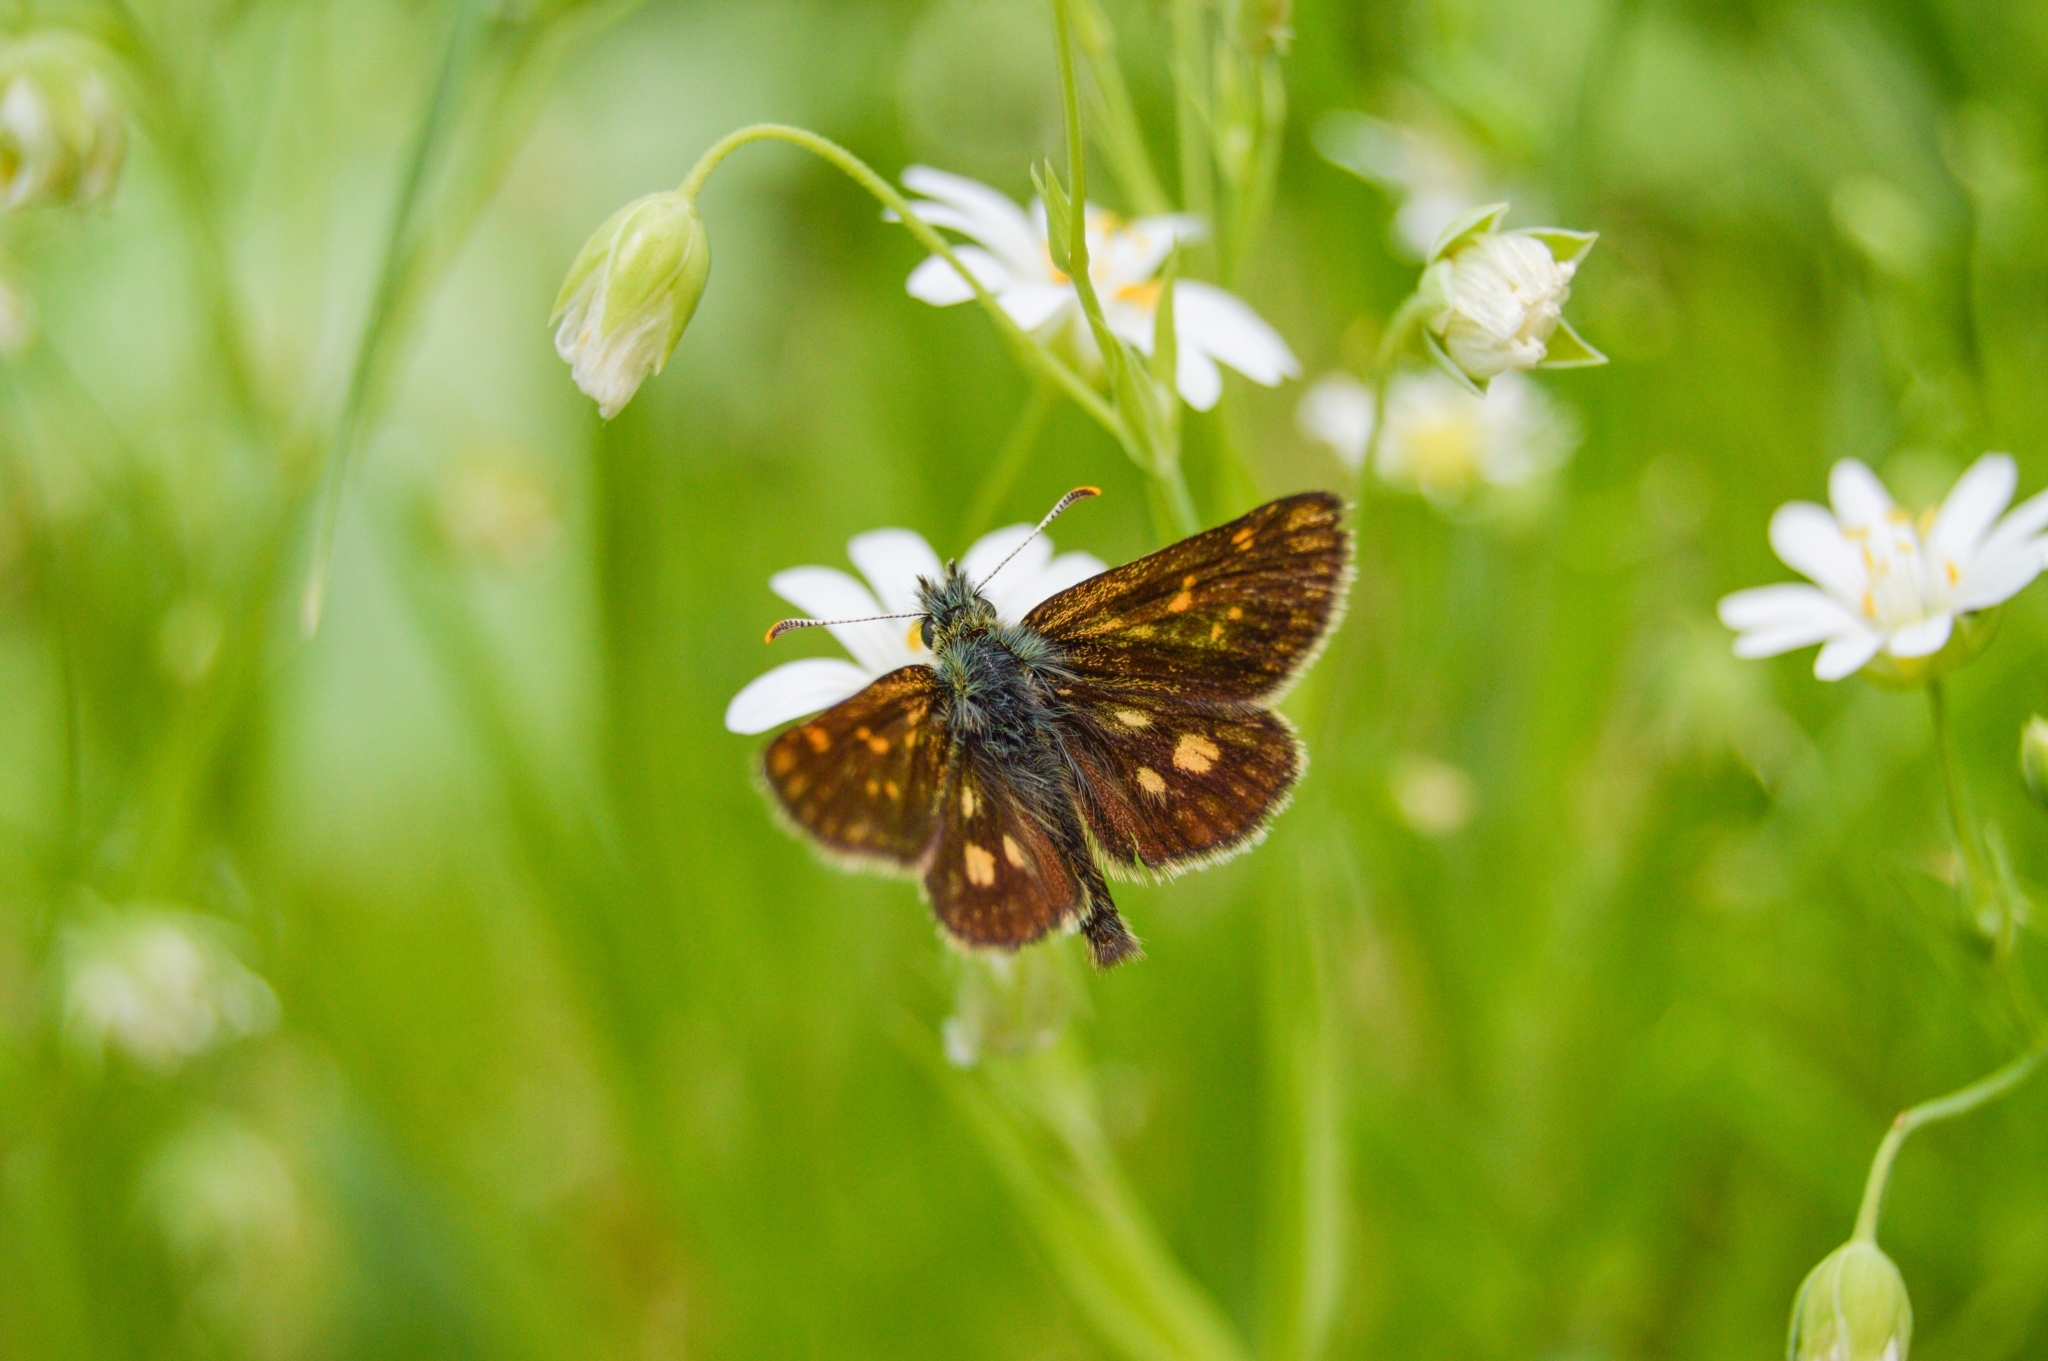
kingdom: Animalia
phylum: Arthropoda
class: Insecta
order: Lepidoptera
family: Hesperiidae
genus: Carterocephalus
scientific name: Carterocephalus palaemon
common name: Chequered skipper
